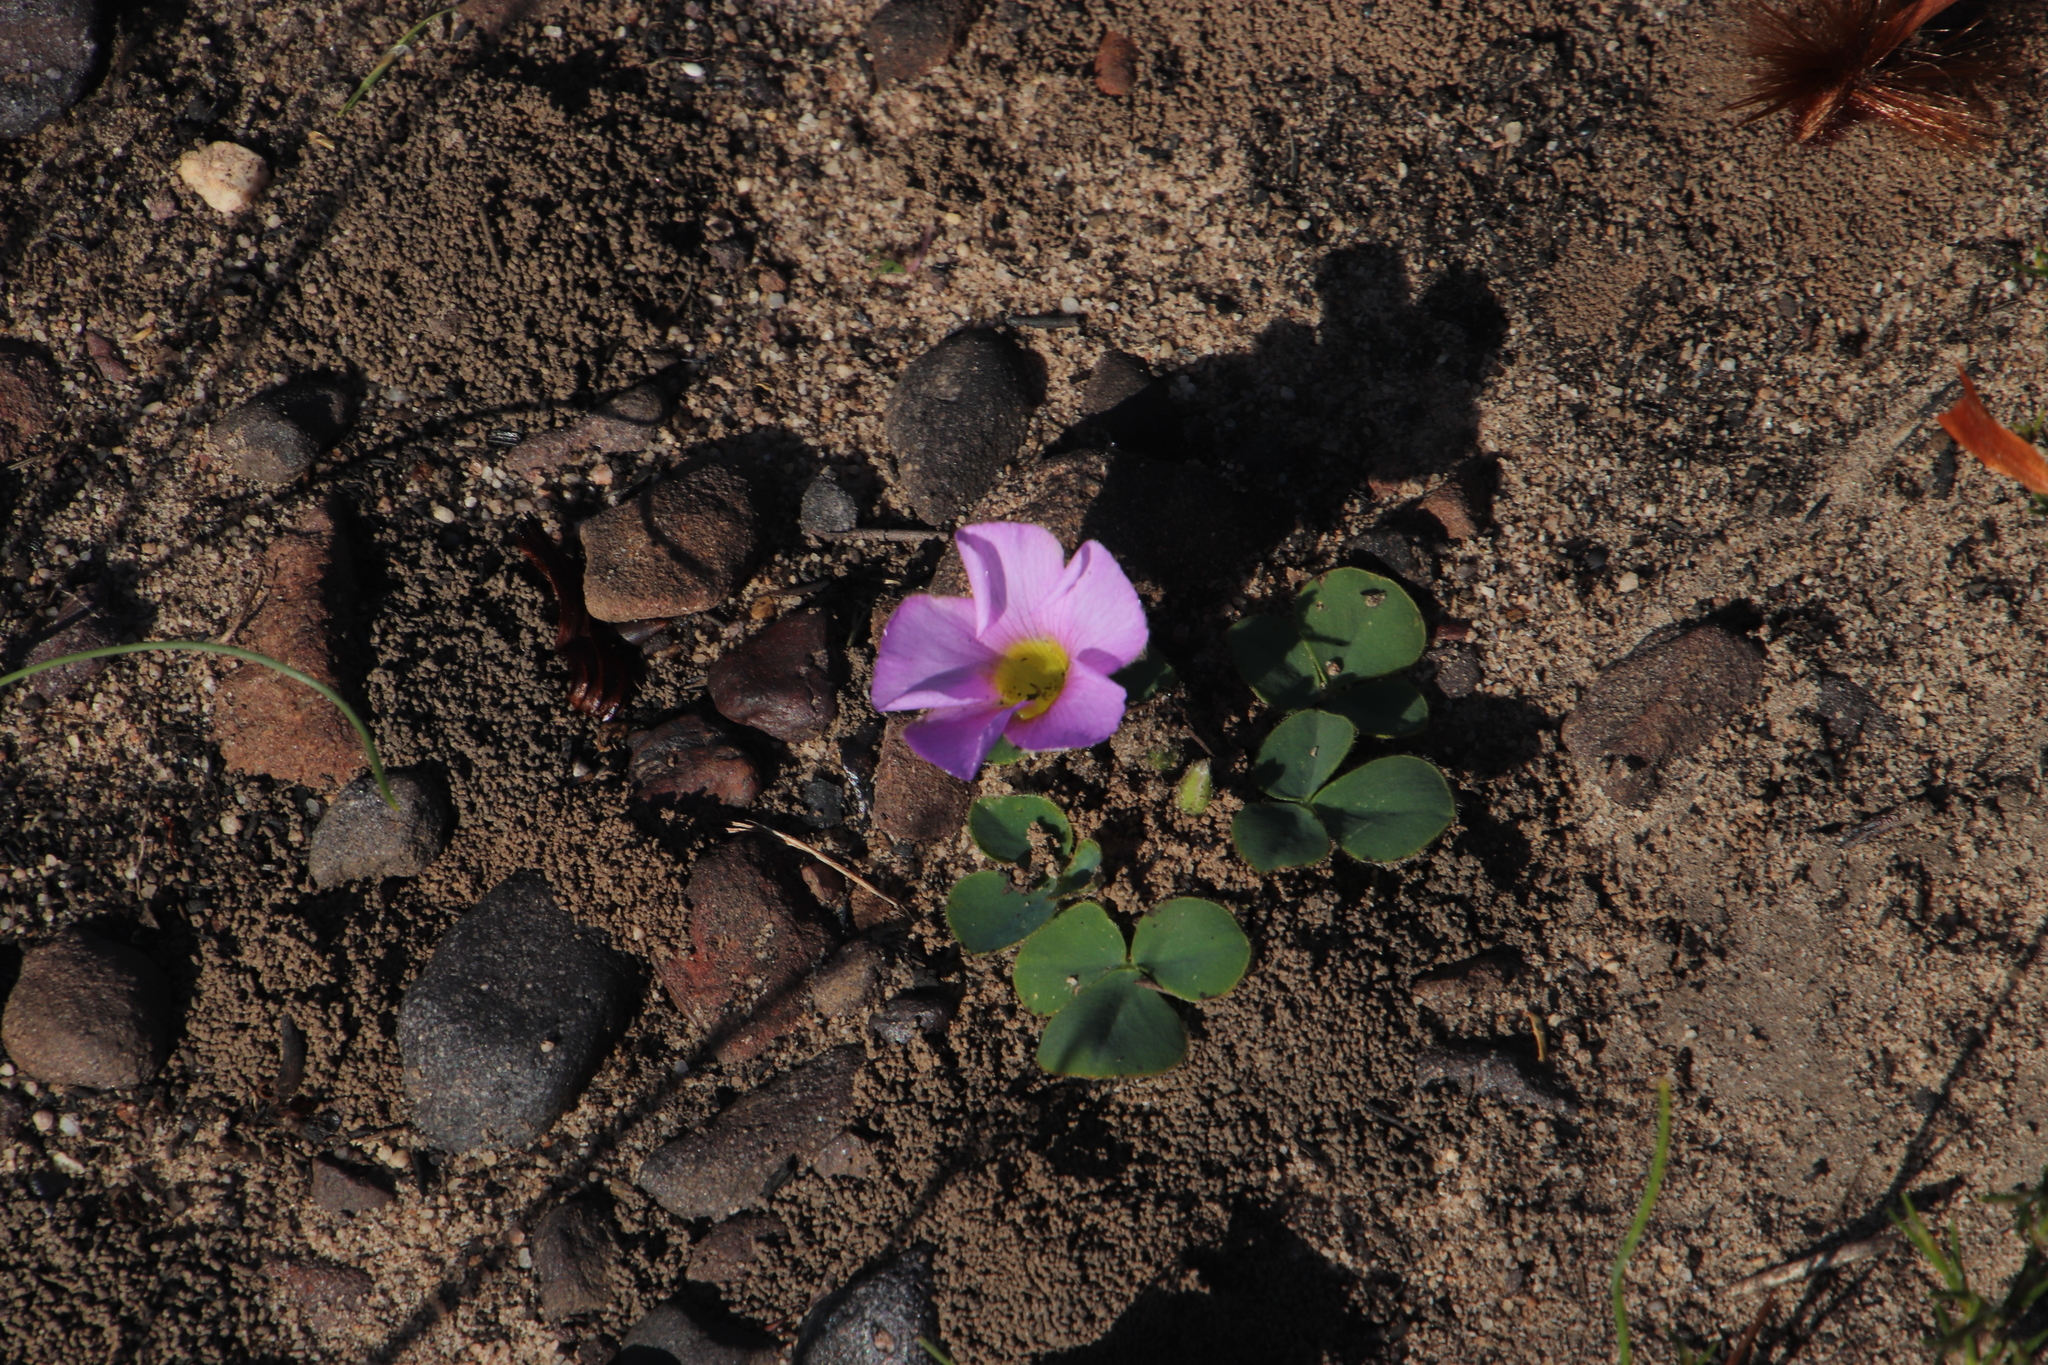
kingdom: Plantae
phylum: Tracheophyta
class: Magnoliopsida
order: Oxalidales
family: Oxalidaceae
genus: Oxalis
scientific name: Oxalis purpurea
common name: Purple woodsorrel
